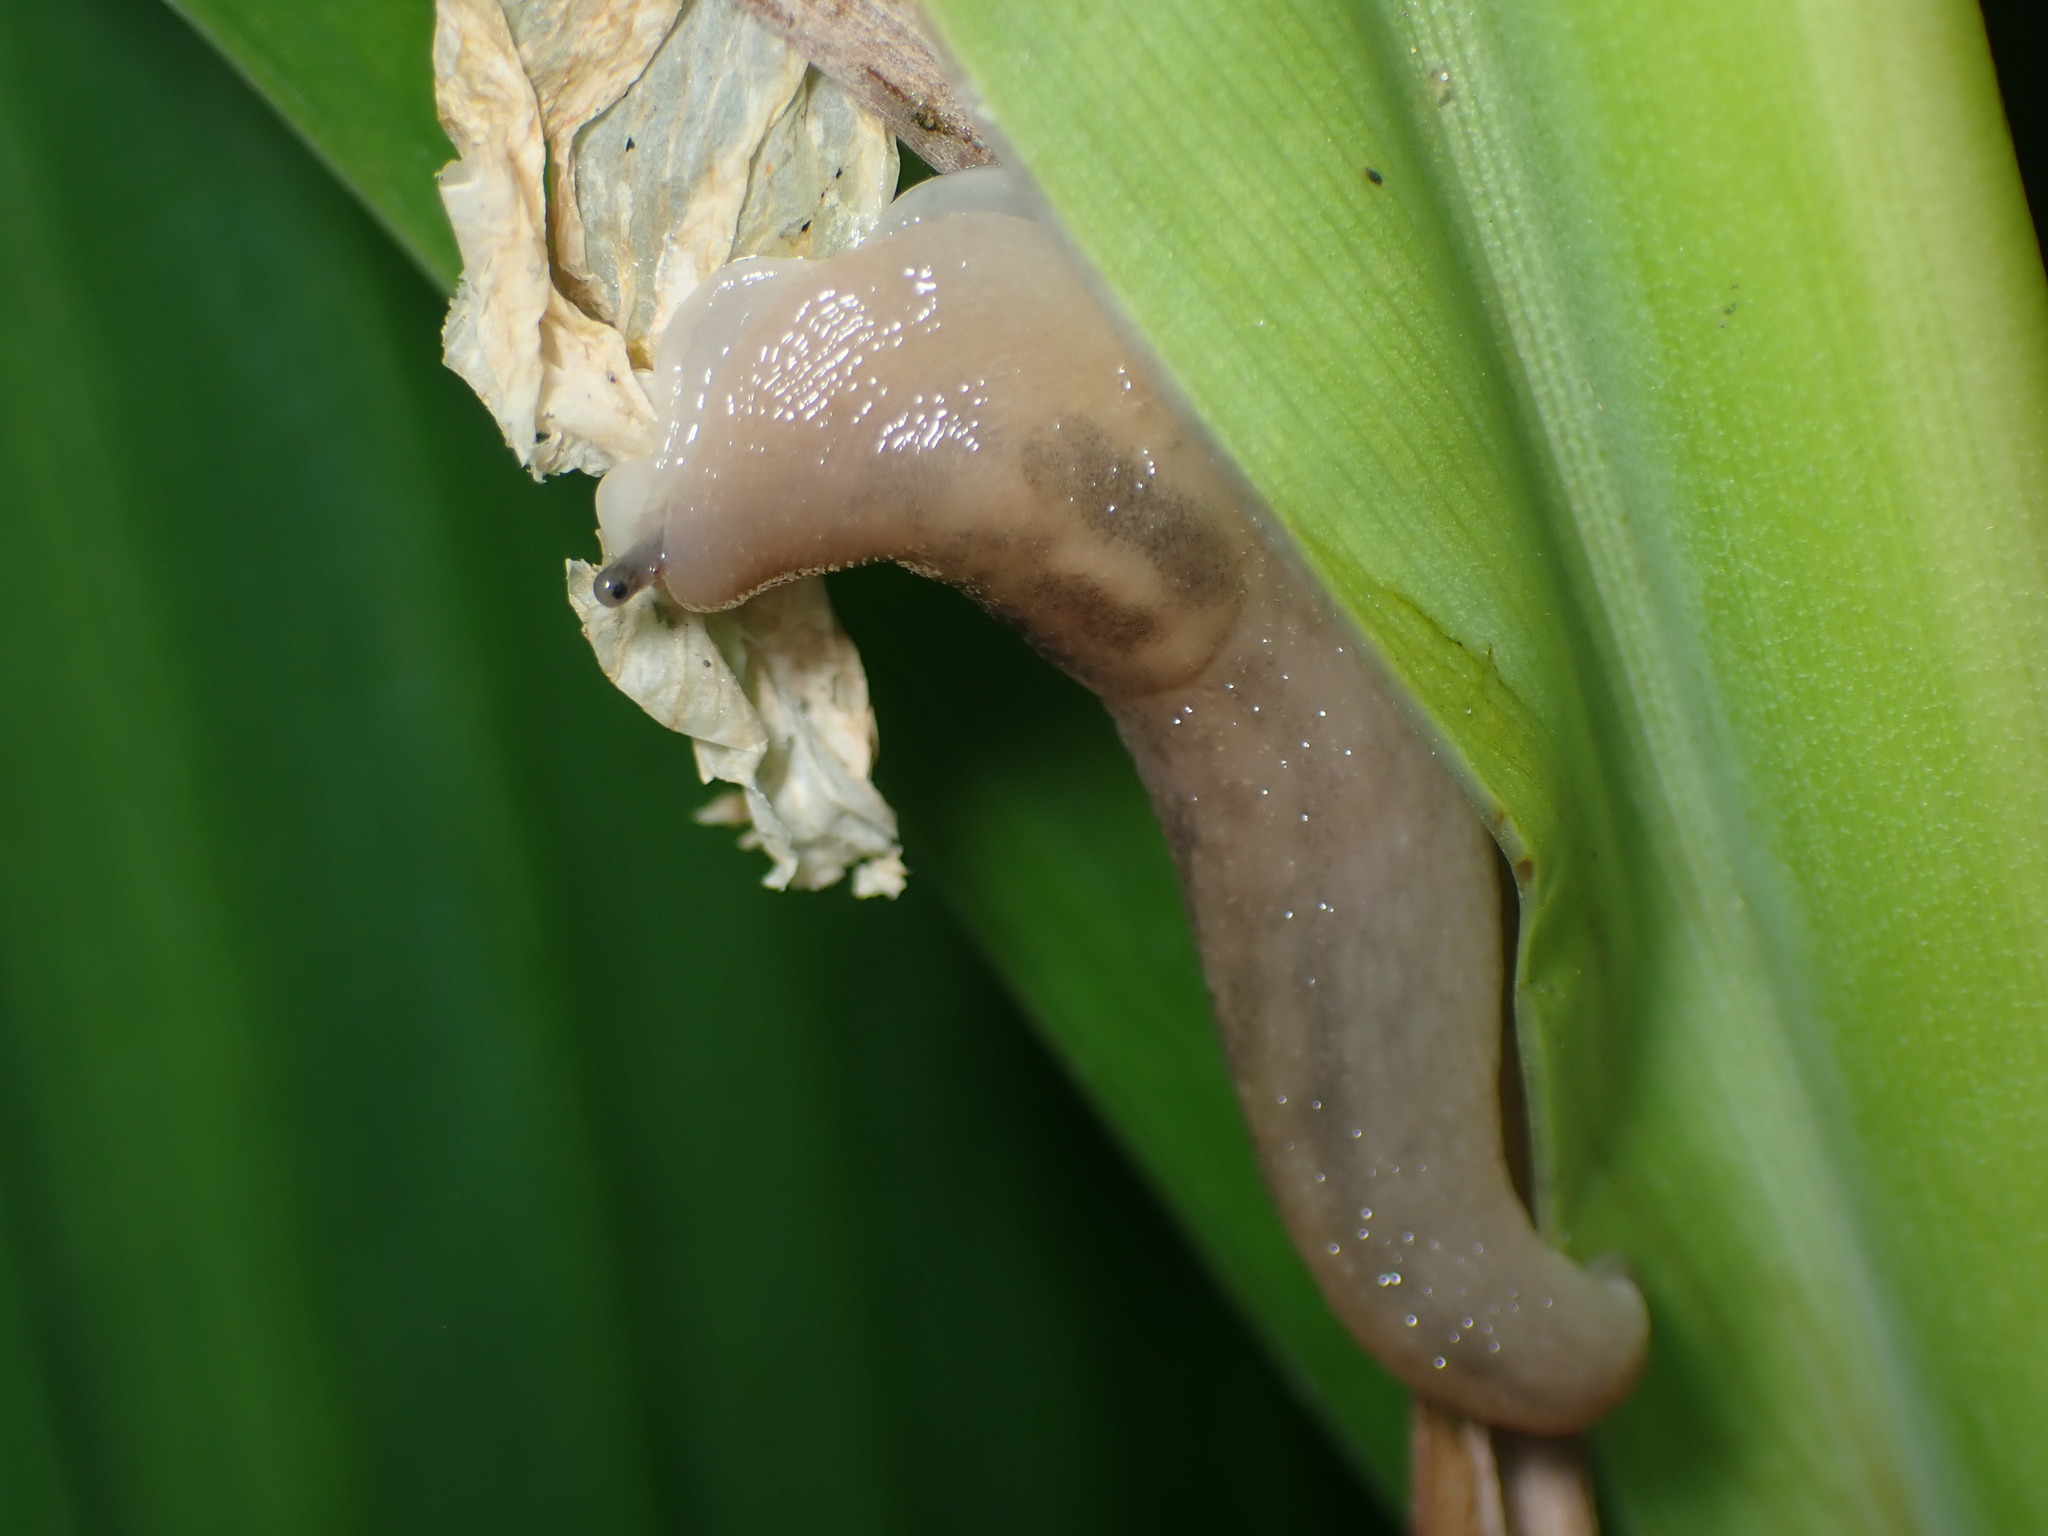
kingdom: Animalia
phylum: Mollusca
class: Gastropoda
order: Stylommatophora
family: Limacidae
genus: Ambigolimax
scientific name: Ambigolimax
